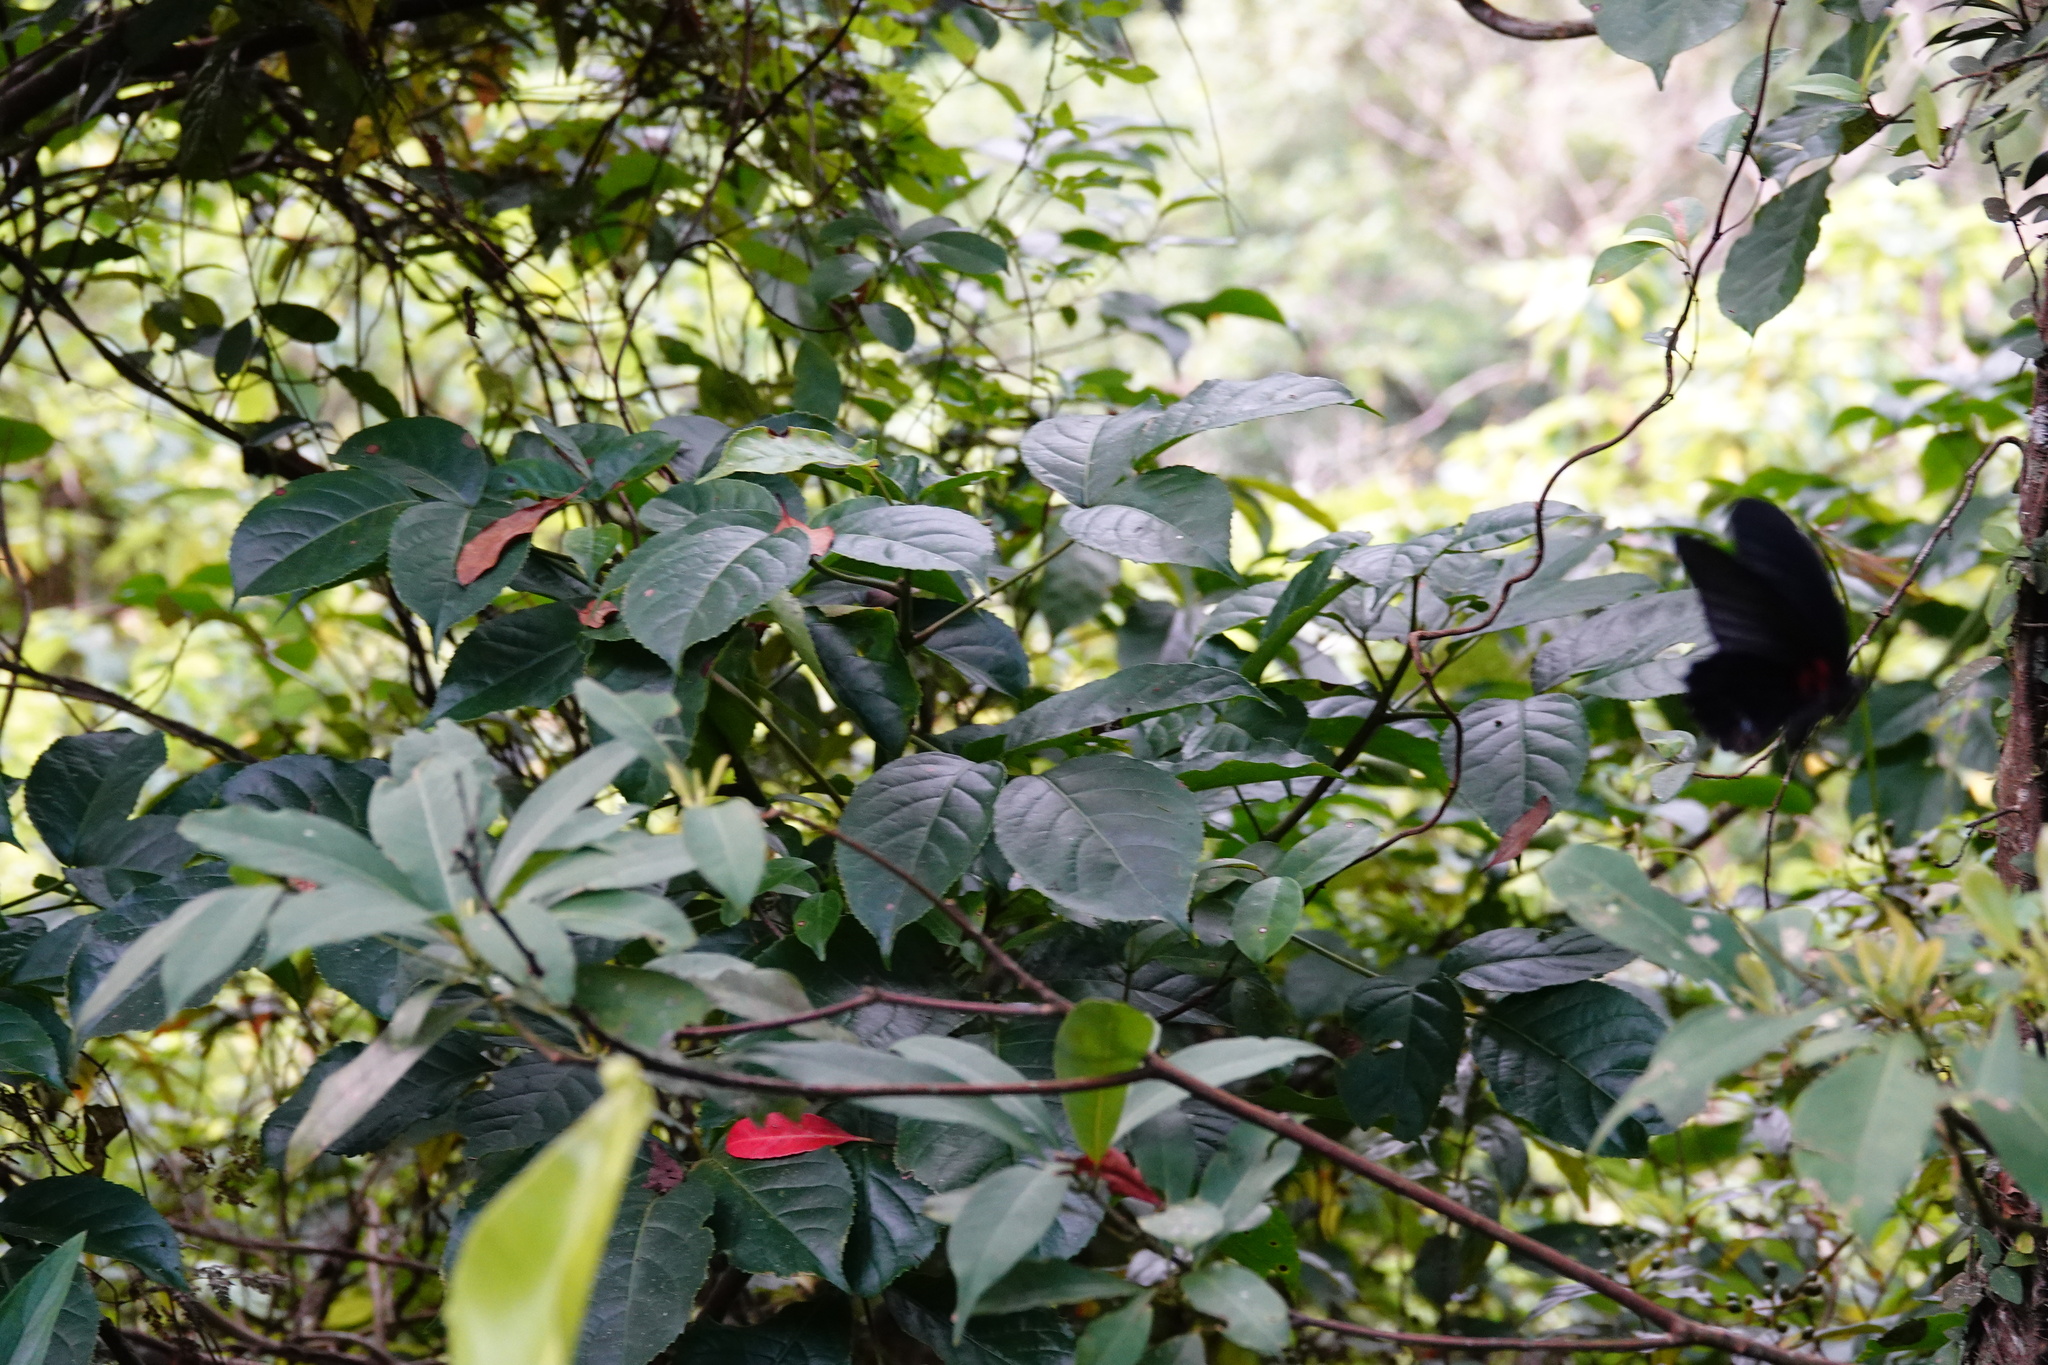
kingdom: Animalia
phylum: Arthropoda
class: Insecta
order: Lepidoptera
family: Papilionidae
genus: Papilio
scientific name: Papilio memnon
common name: Great mormon
